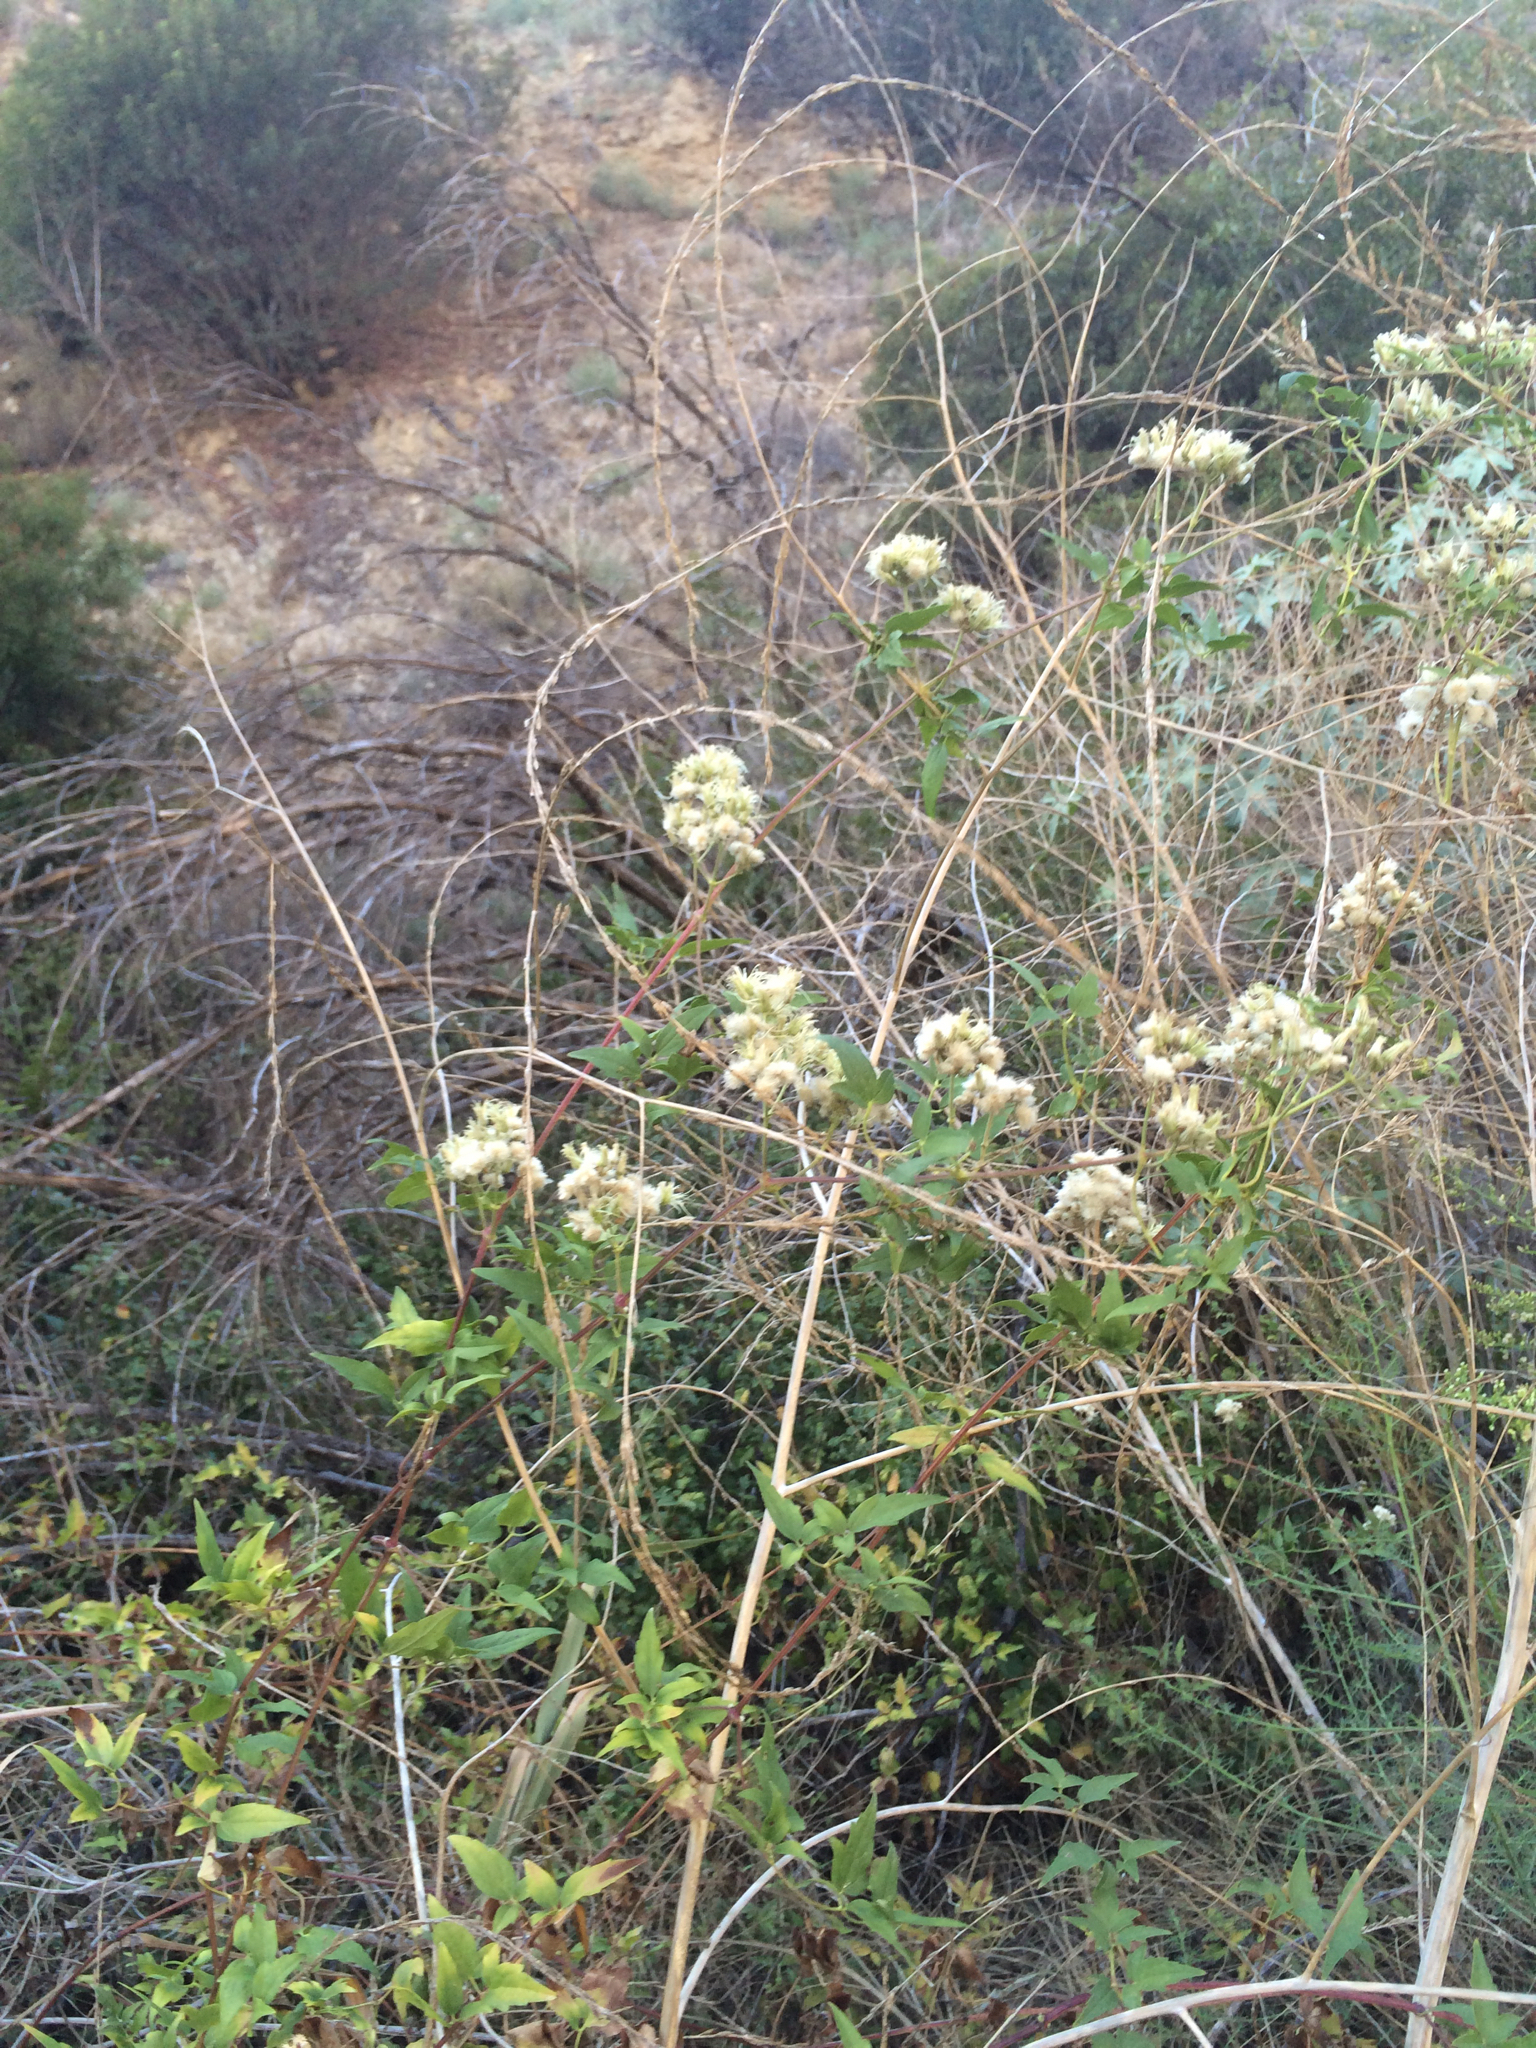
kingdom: Plantae
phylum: Tracheophyta
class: Magnoliopsida
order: Ranunculales
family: Ranunculaceae
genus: Clematis
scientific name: Clematis ligusticifolia
